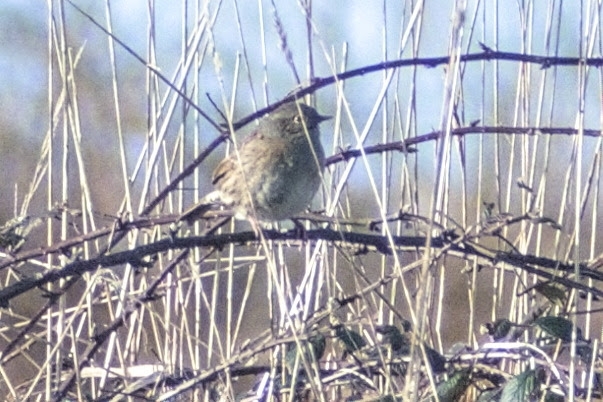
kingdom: Animalia
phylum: Chordata
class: Aves
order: Passeriformes
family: Prunellidae
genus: Prunella
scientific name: Prunella modularis
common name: Dunnock
